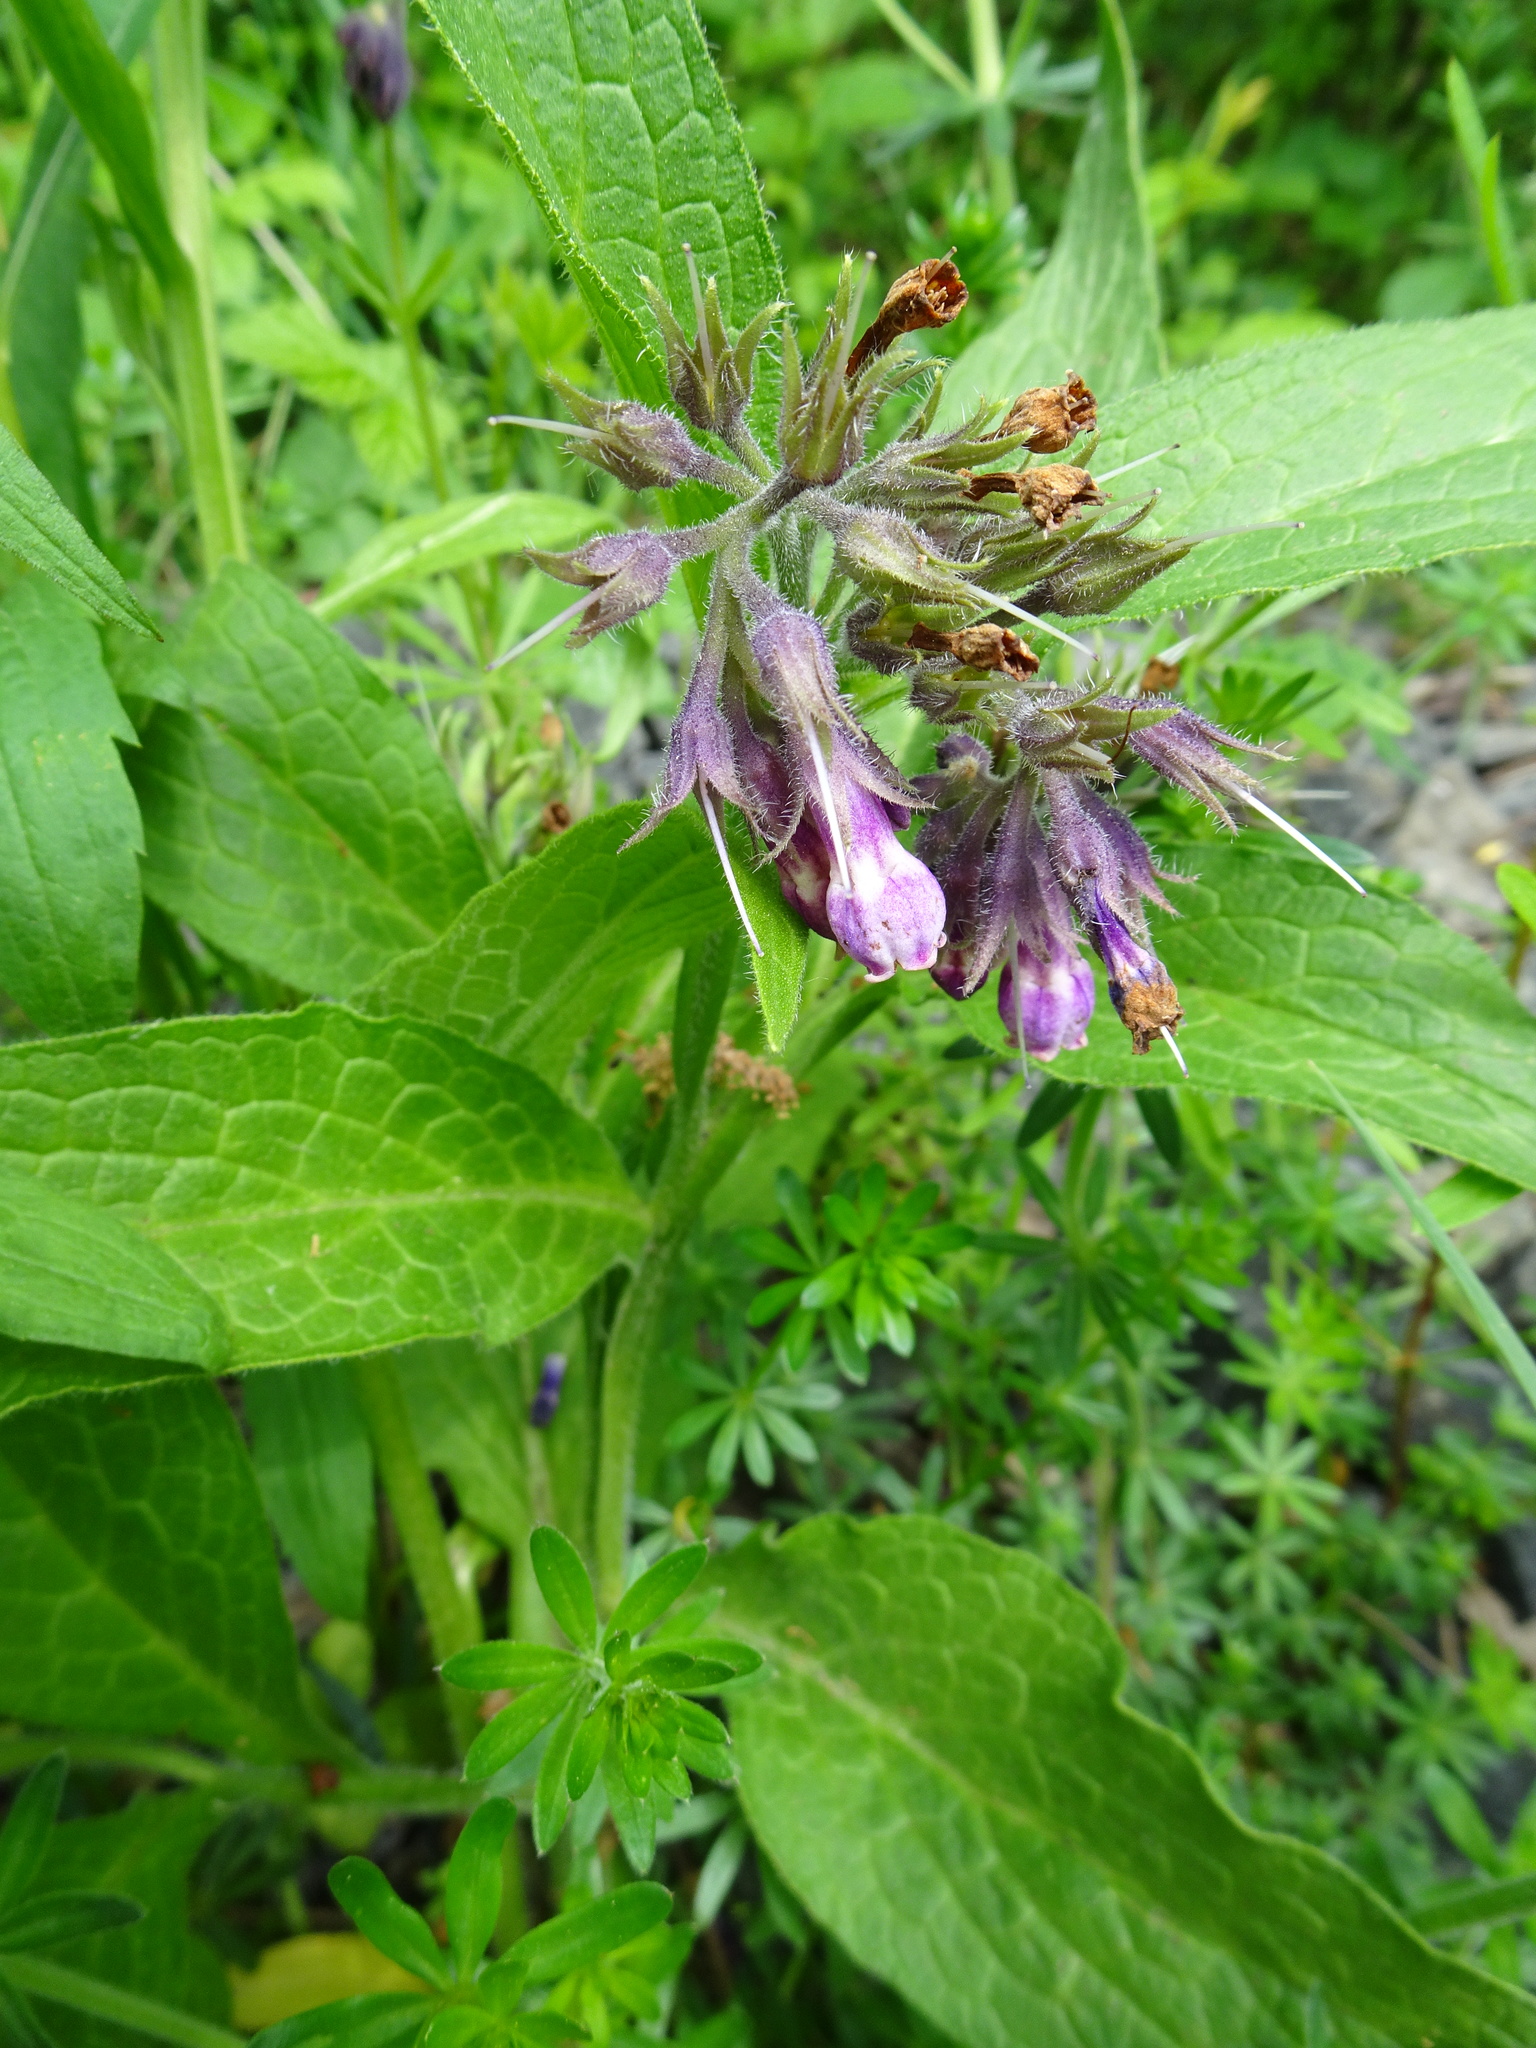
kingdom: Plantae
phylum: Tracheophyta
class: Magnoliopsida
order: Boraginales
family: Boraginaceae
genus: Symphytum
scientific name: Symphytum officinale
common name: Common comfrey
